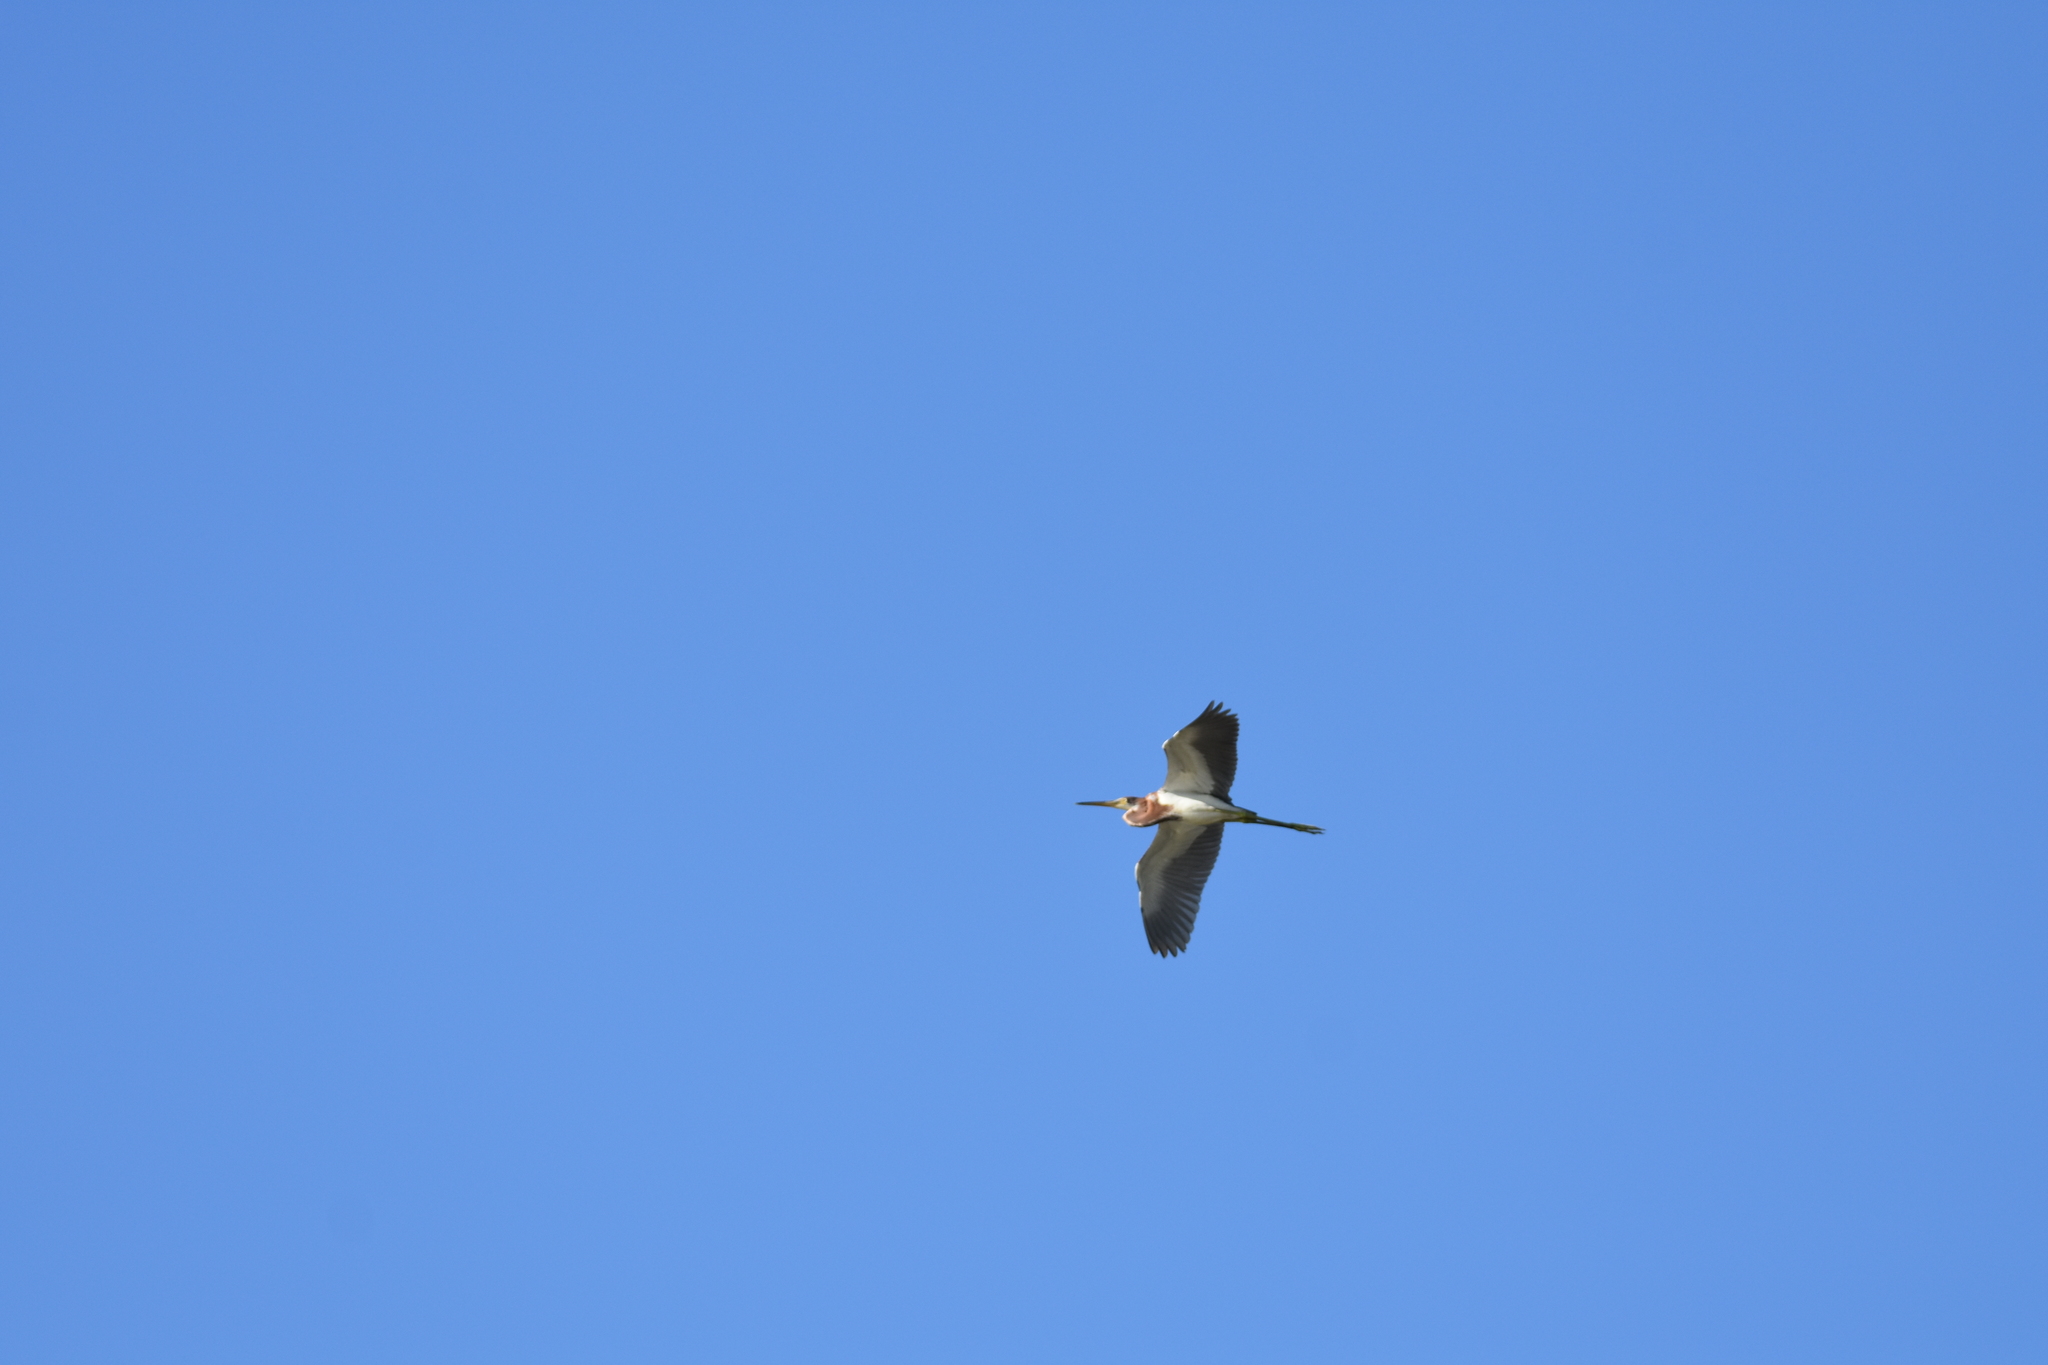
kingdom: Animalia
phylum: Chordata
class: Aves
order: Pelecaniformes
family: Ardeidae
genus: Egretta
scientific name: Egretta tricolor
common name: Tricolored heron
